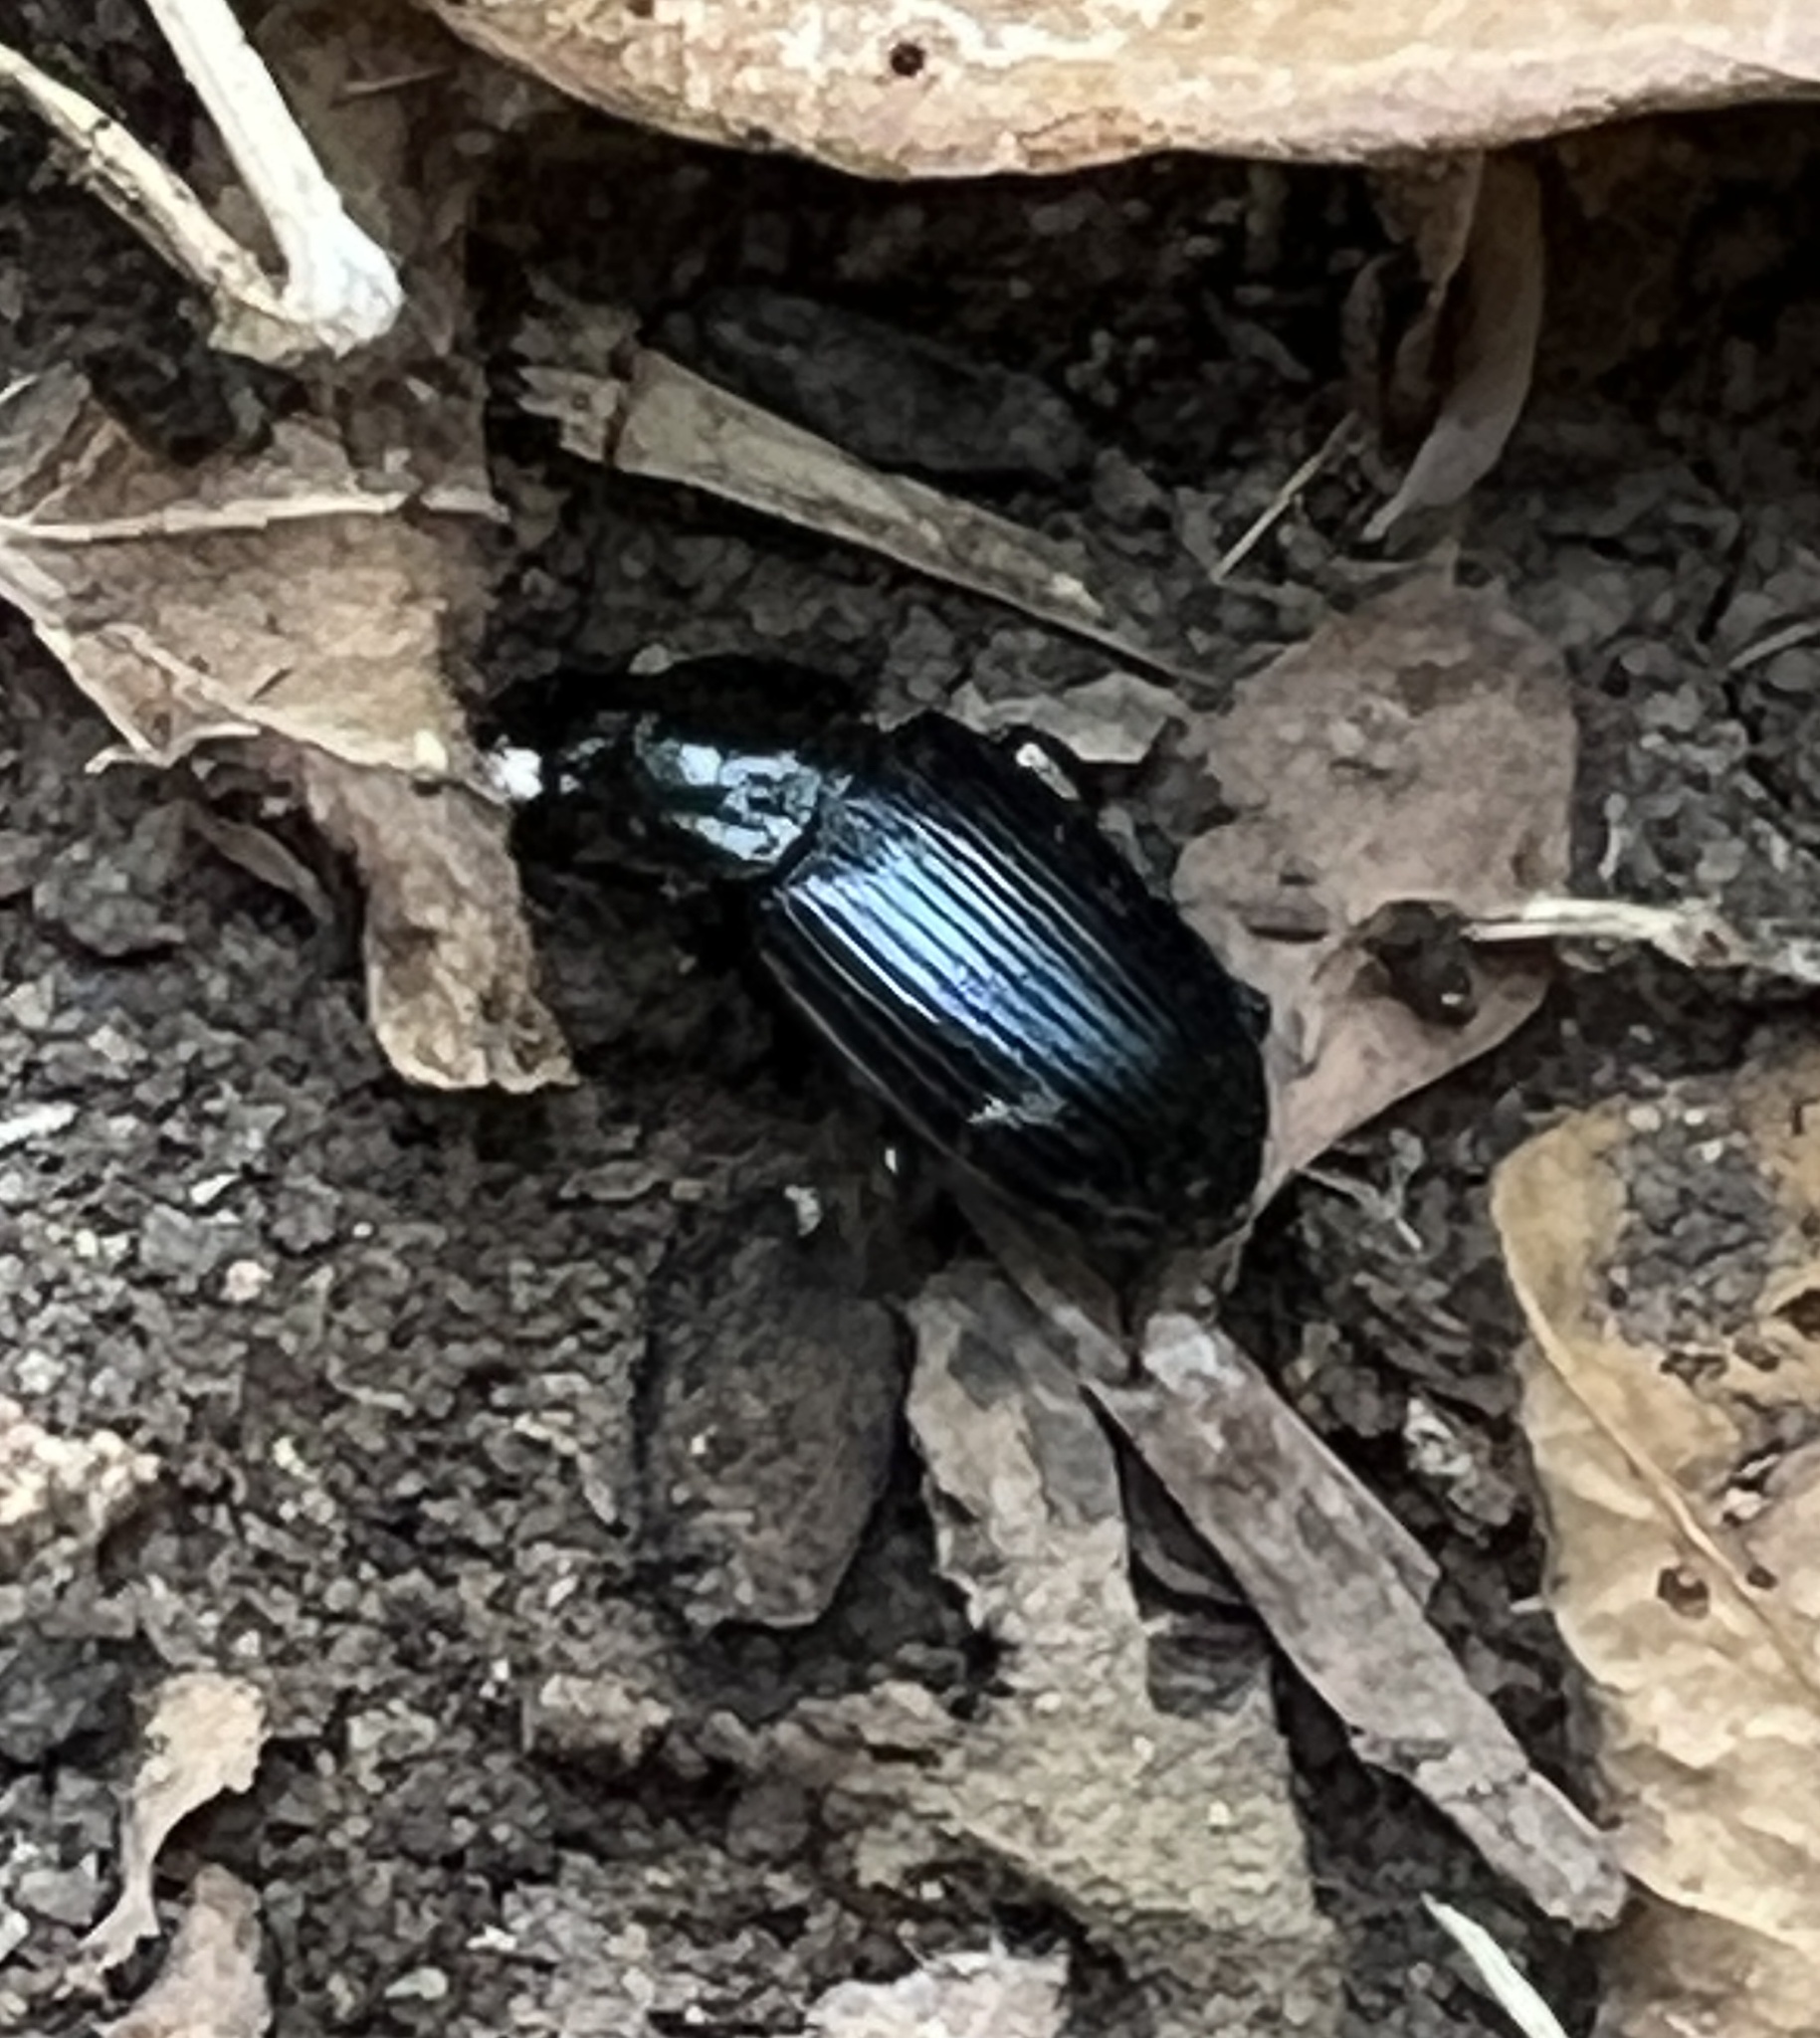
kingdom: Animalia
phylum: Arthropoda
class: Insecta
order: Coleoptera
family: Carabidae
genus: Aztecarpalus
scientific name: Aztecarpalus schaefferi
